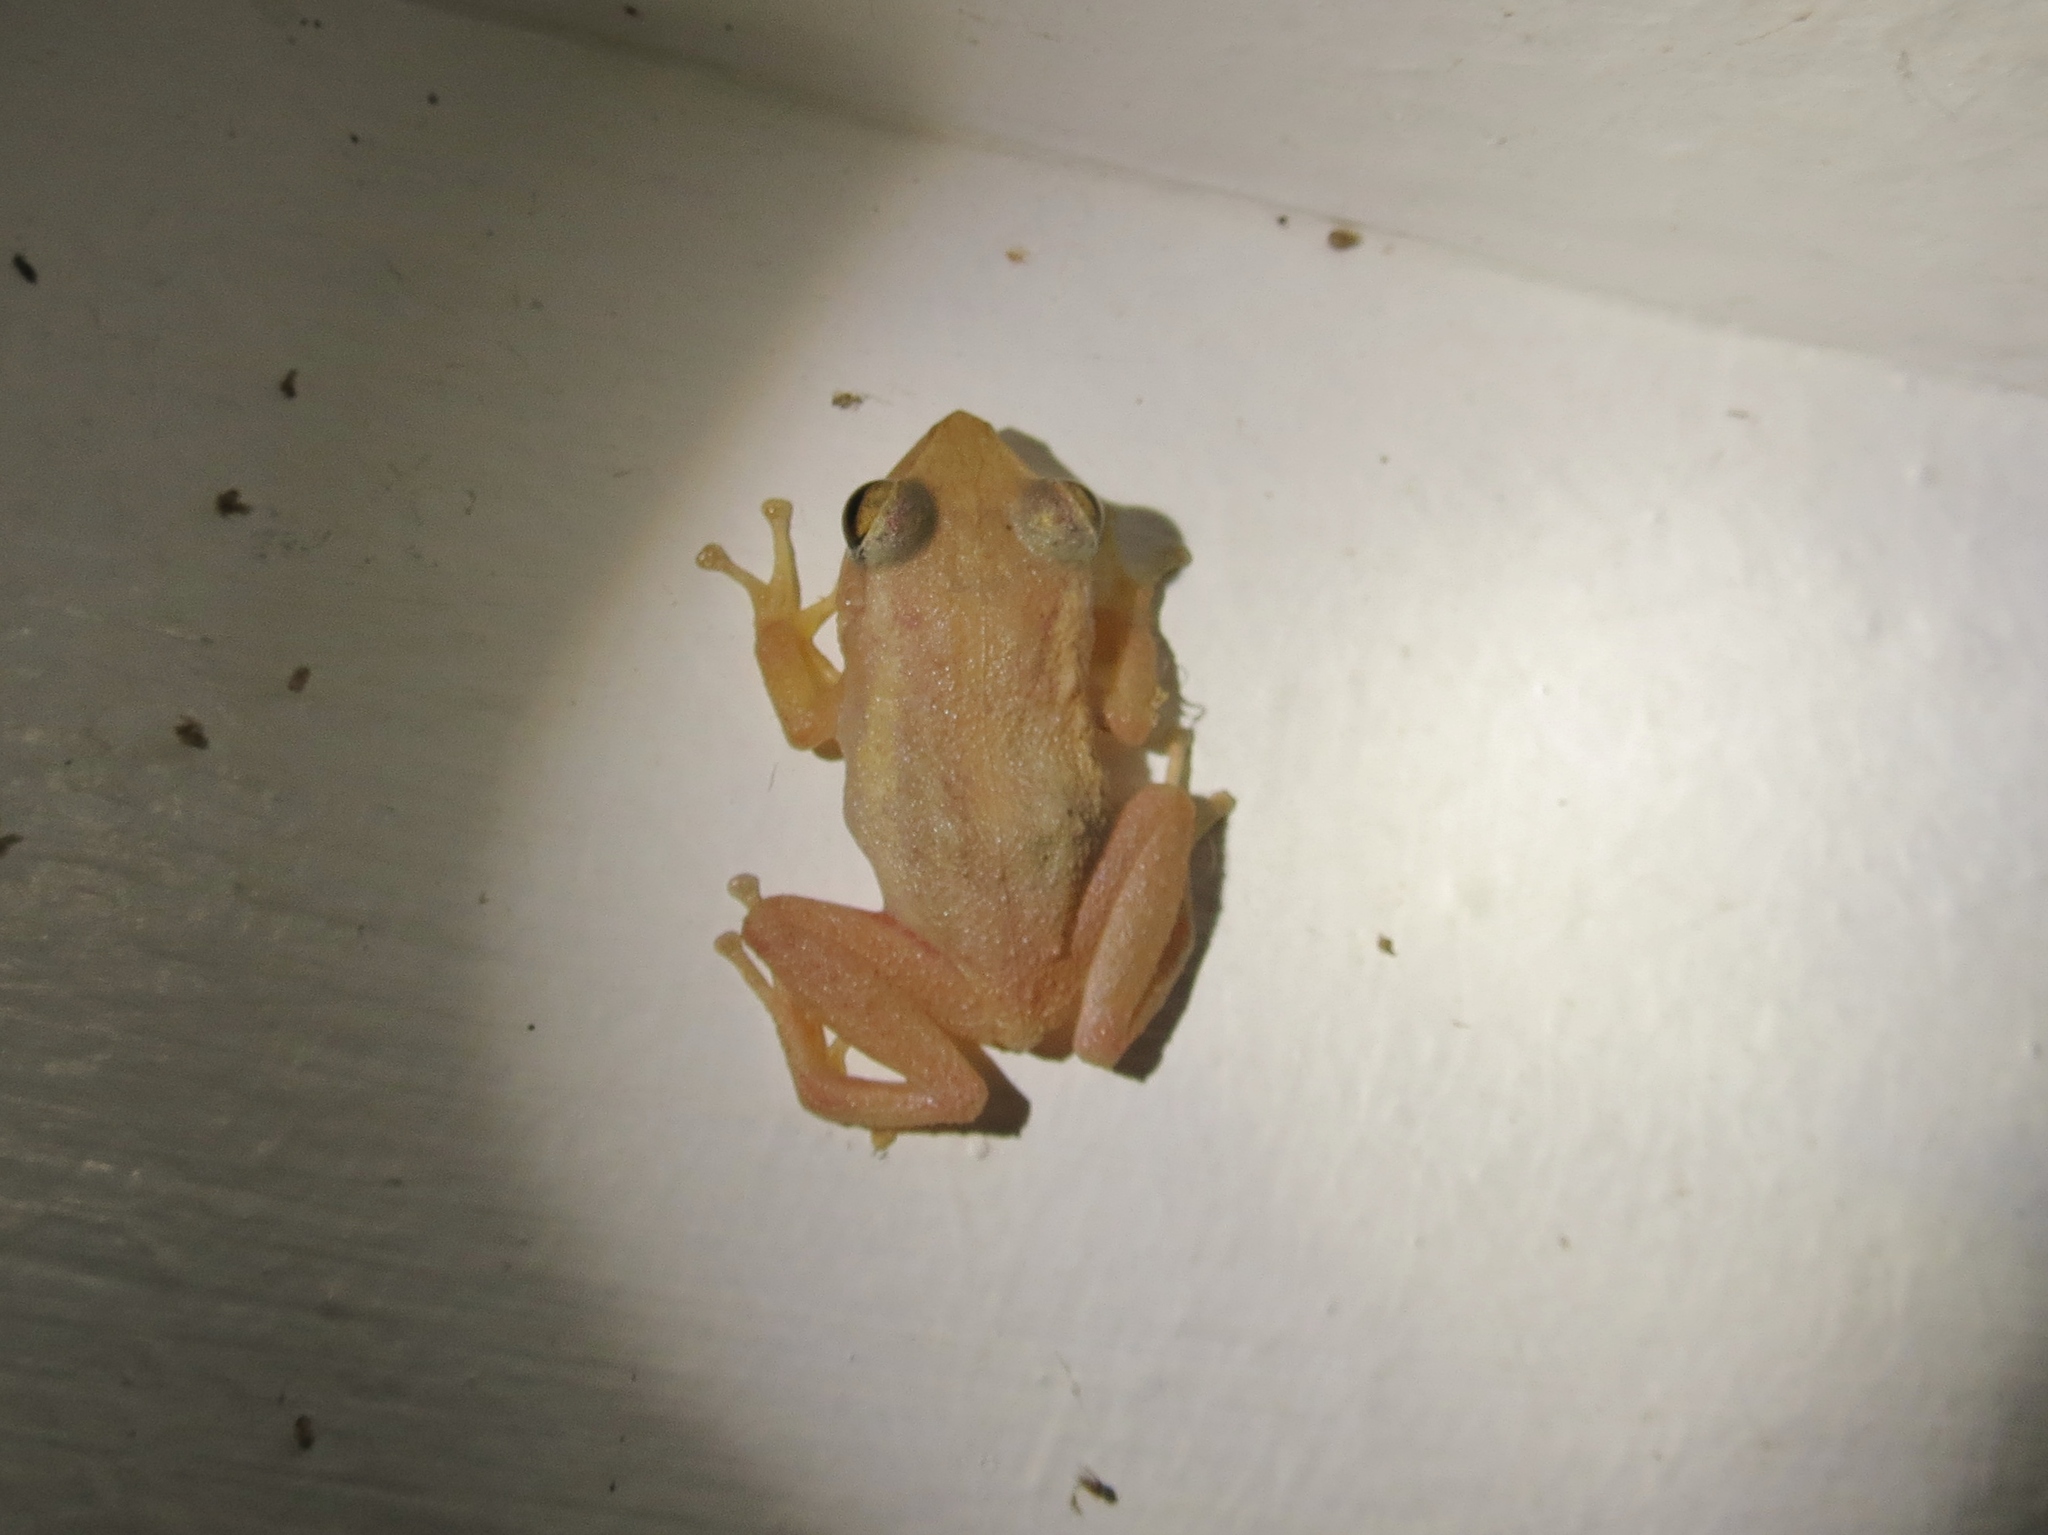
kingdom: Animalia
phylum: Chordata
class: Amphibia
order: Anura
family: Eleutherodactylidae
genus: Eleutherodactylus
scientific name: Eleutherodactylus coqui
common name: Coqui frog
